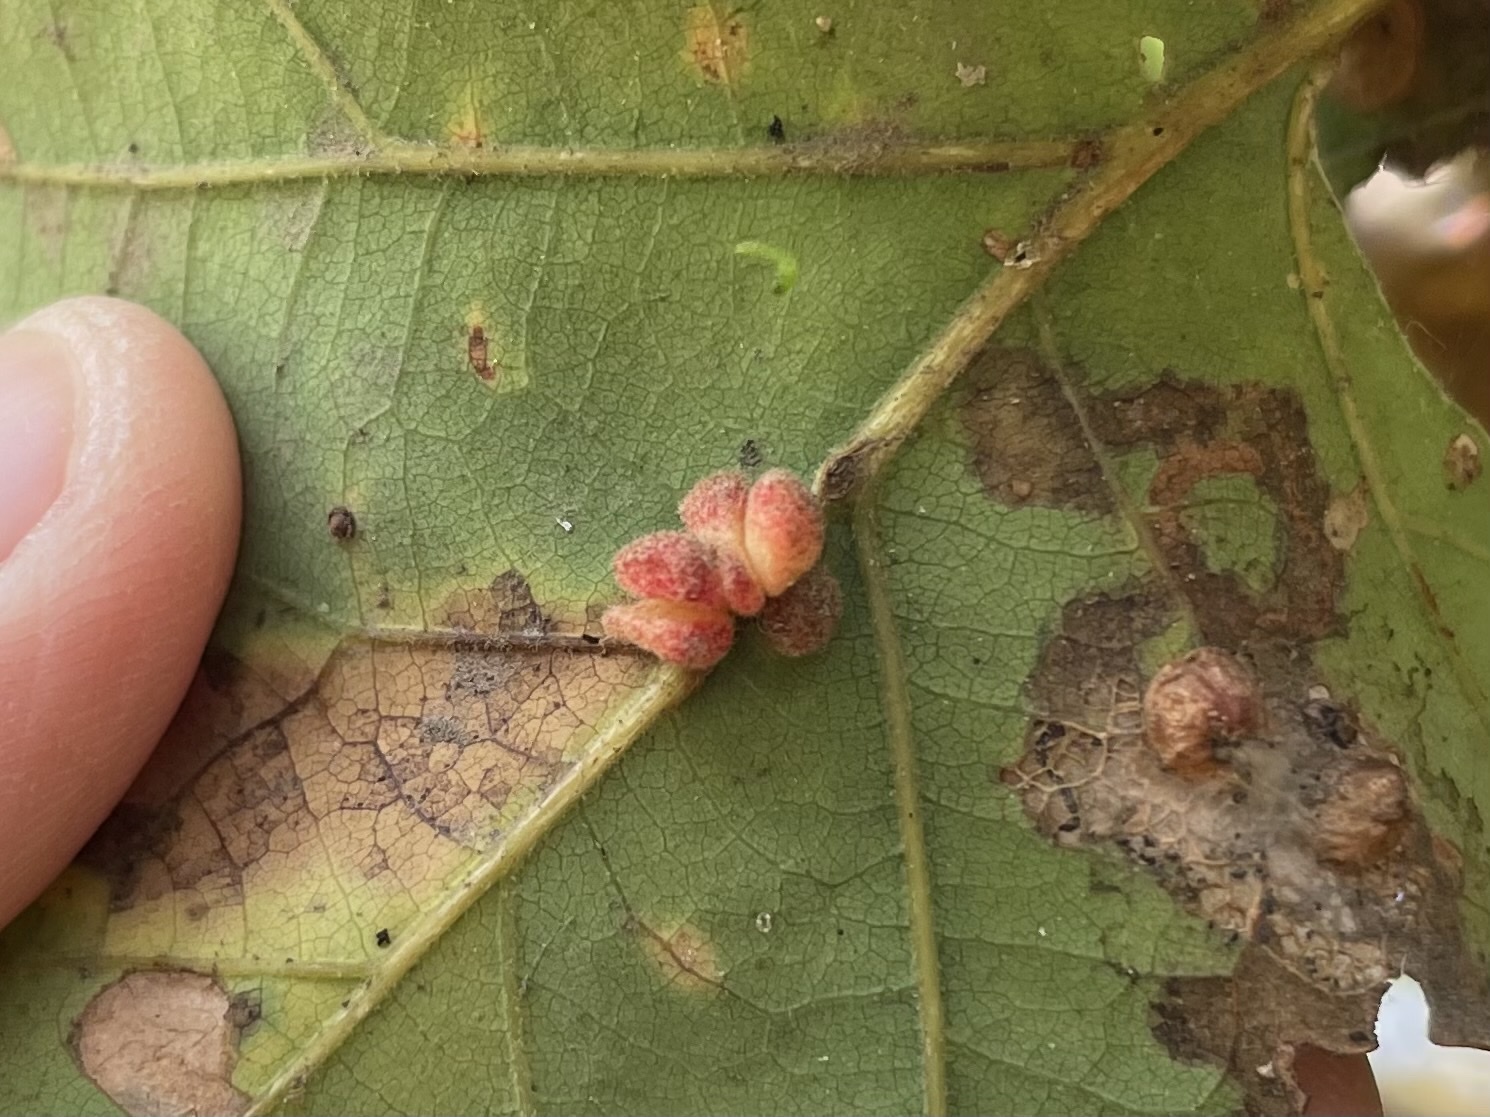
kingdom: Animalia
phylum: Arthropoda
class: Insecta
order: Hymenoptera
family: Cynipidae
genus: Andricus
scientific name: Andricus
